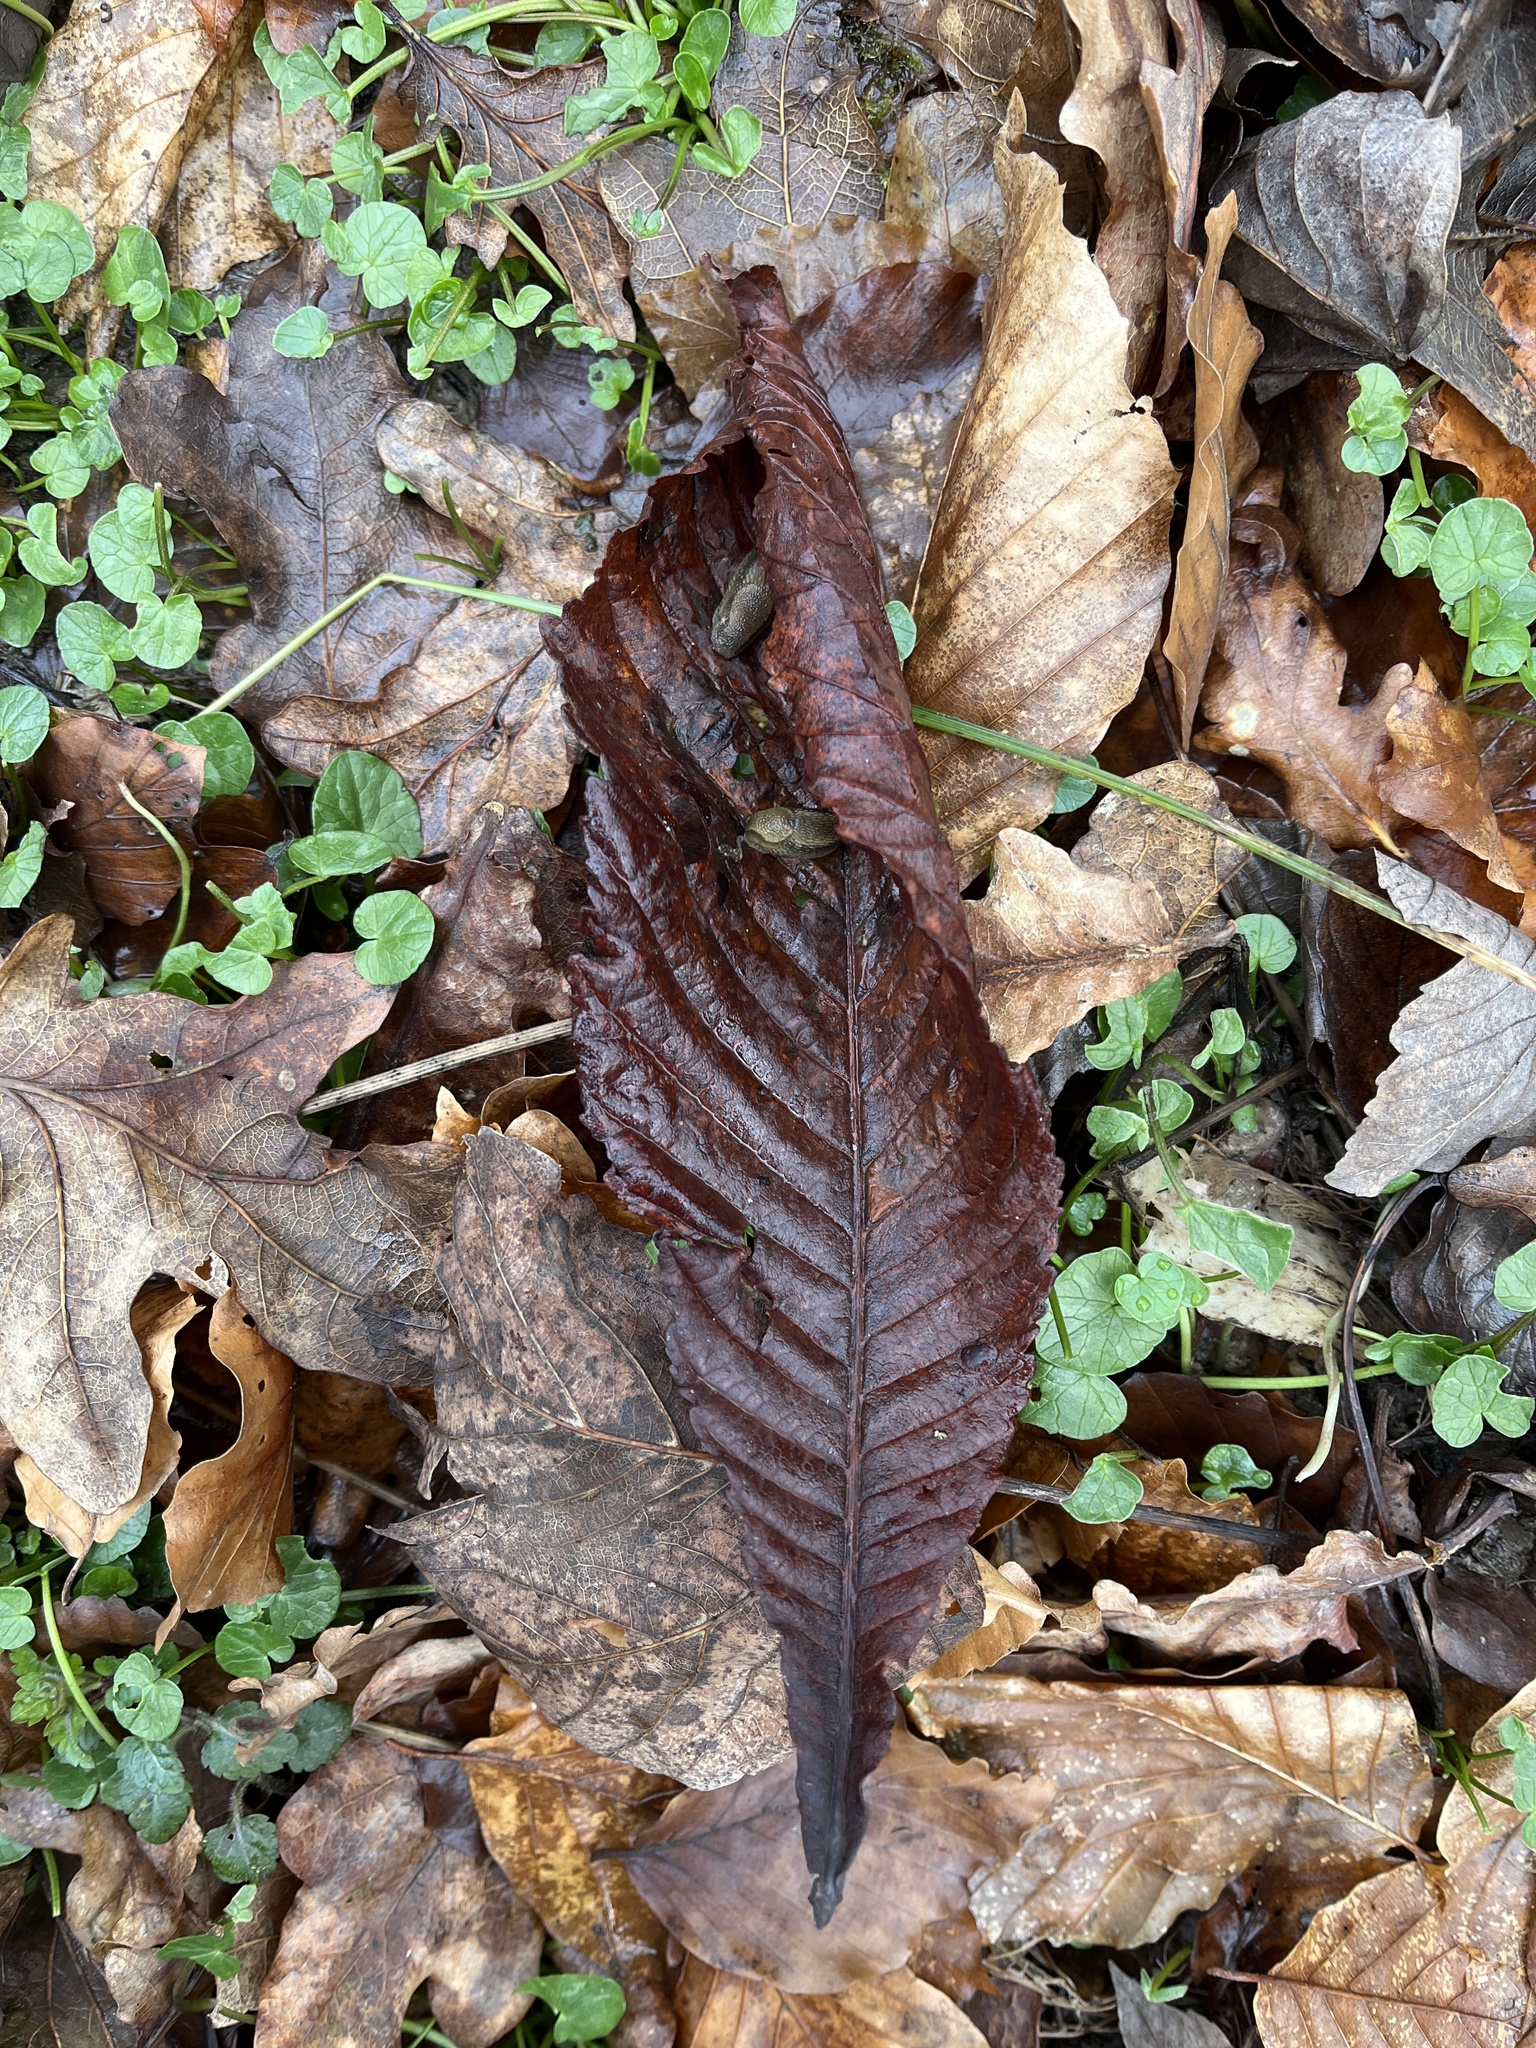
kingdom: Plantae
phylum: Tracheophyta
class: Magnoliopsida
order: Fagales
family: Fagaceae
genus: Castanea
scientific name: Castanea sativa
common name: Sweet chestnut
